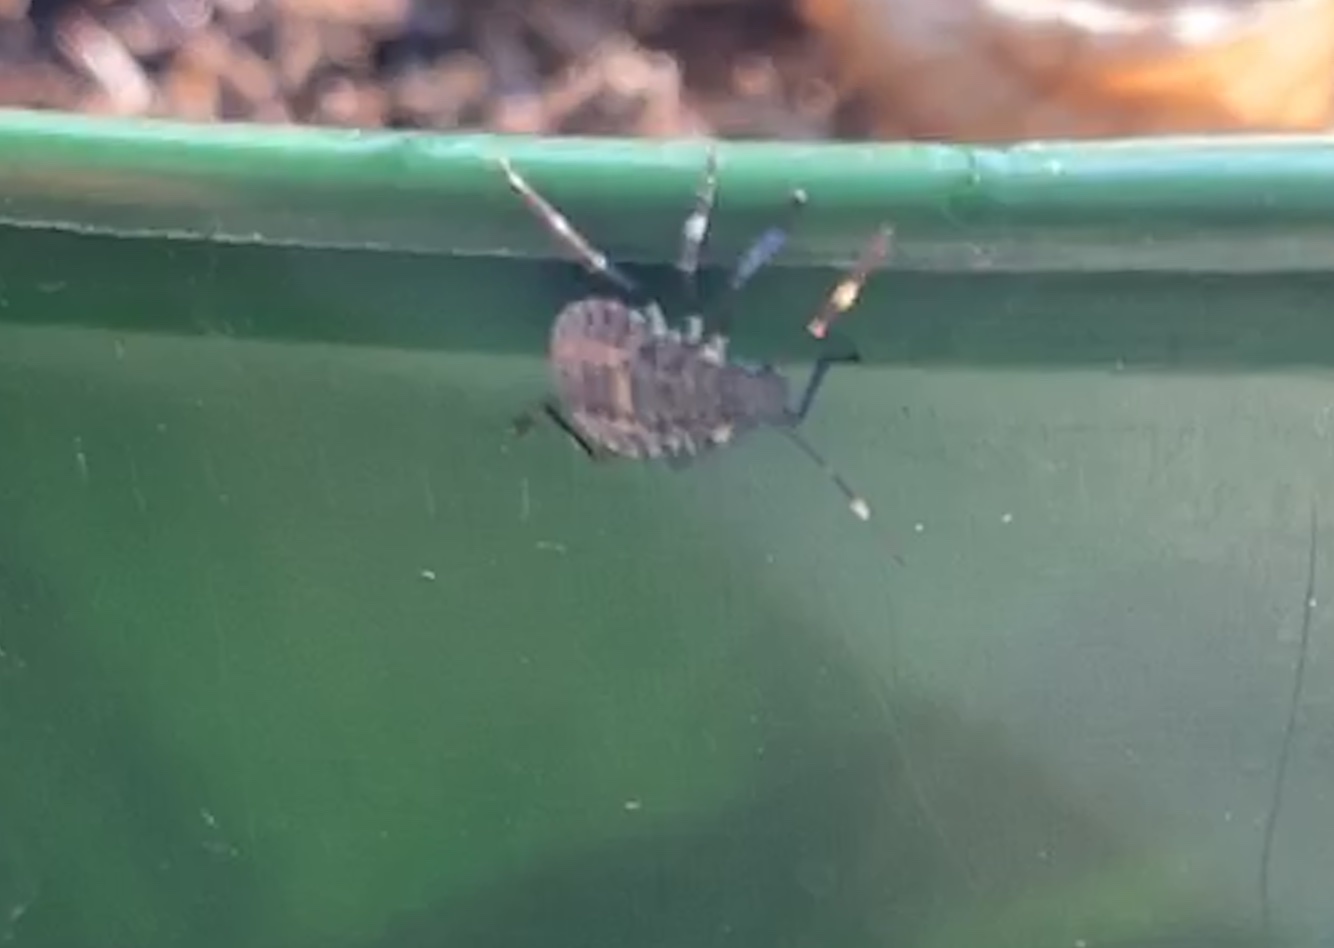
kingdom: Animalia
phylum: Arthropoda
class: Insecta
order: Hemiptera
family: Pentatomidae
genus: Halyomorpha
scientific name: Halyomorpha halys
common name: Brown marmorated stink bug
